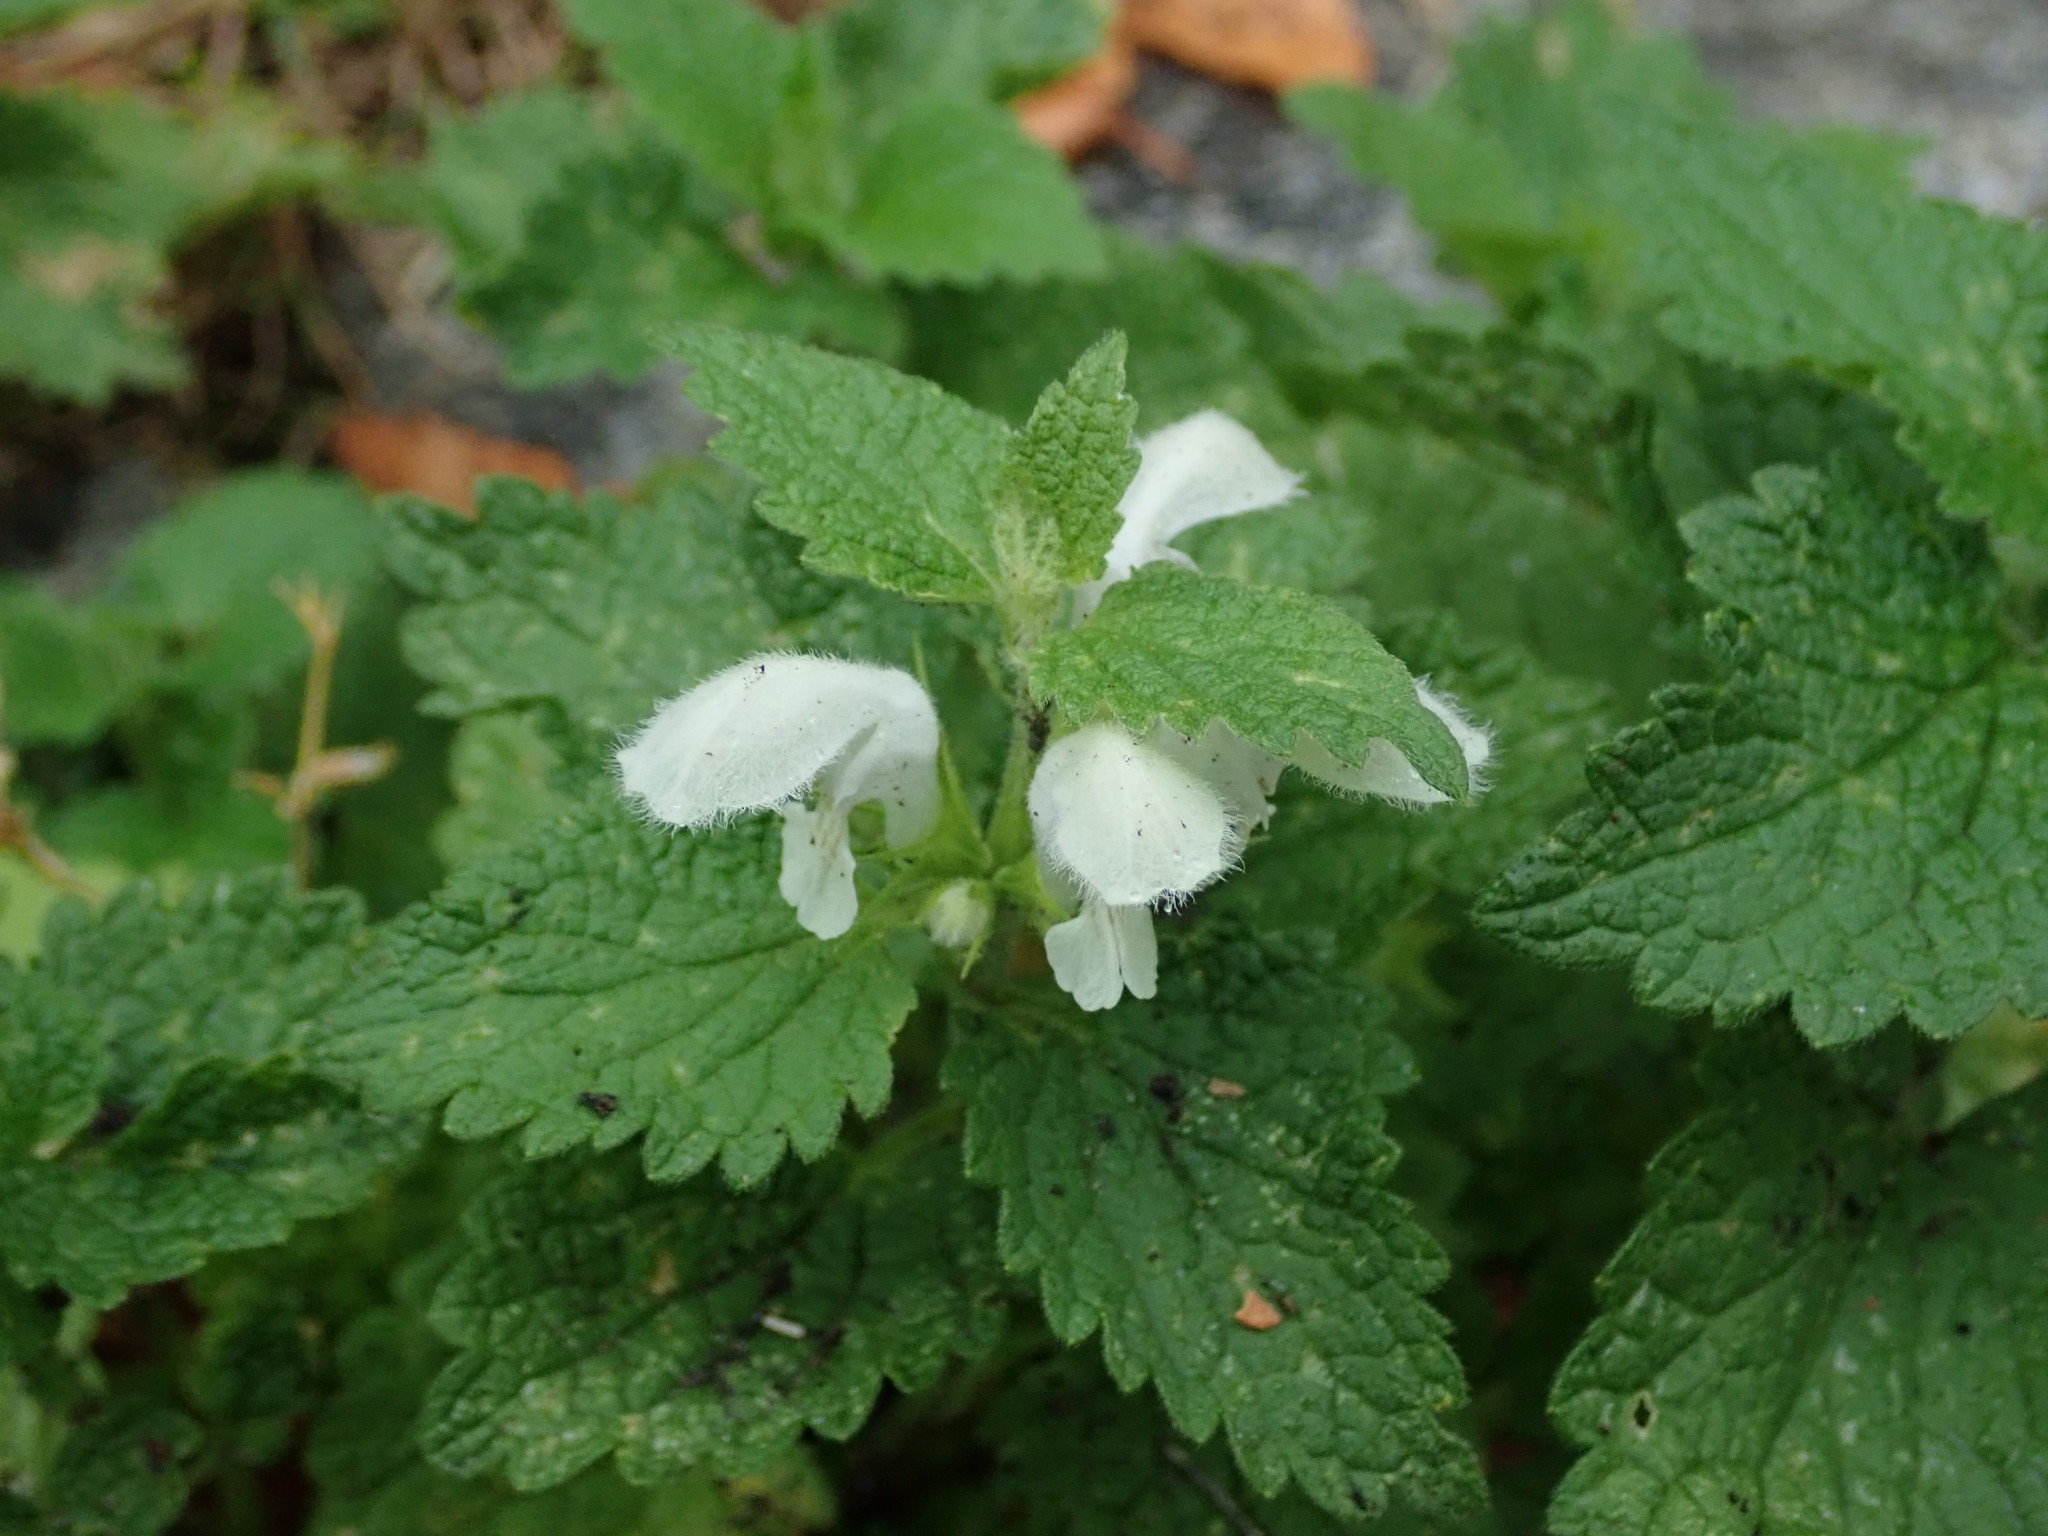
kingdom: Plantae
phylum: Tracheophyta
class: Magnoliopsida
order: Lamiales
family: Lamiaceae
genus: Lamium
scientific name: Lamium album
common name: White dead-nettle
